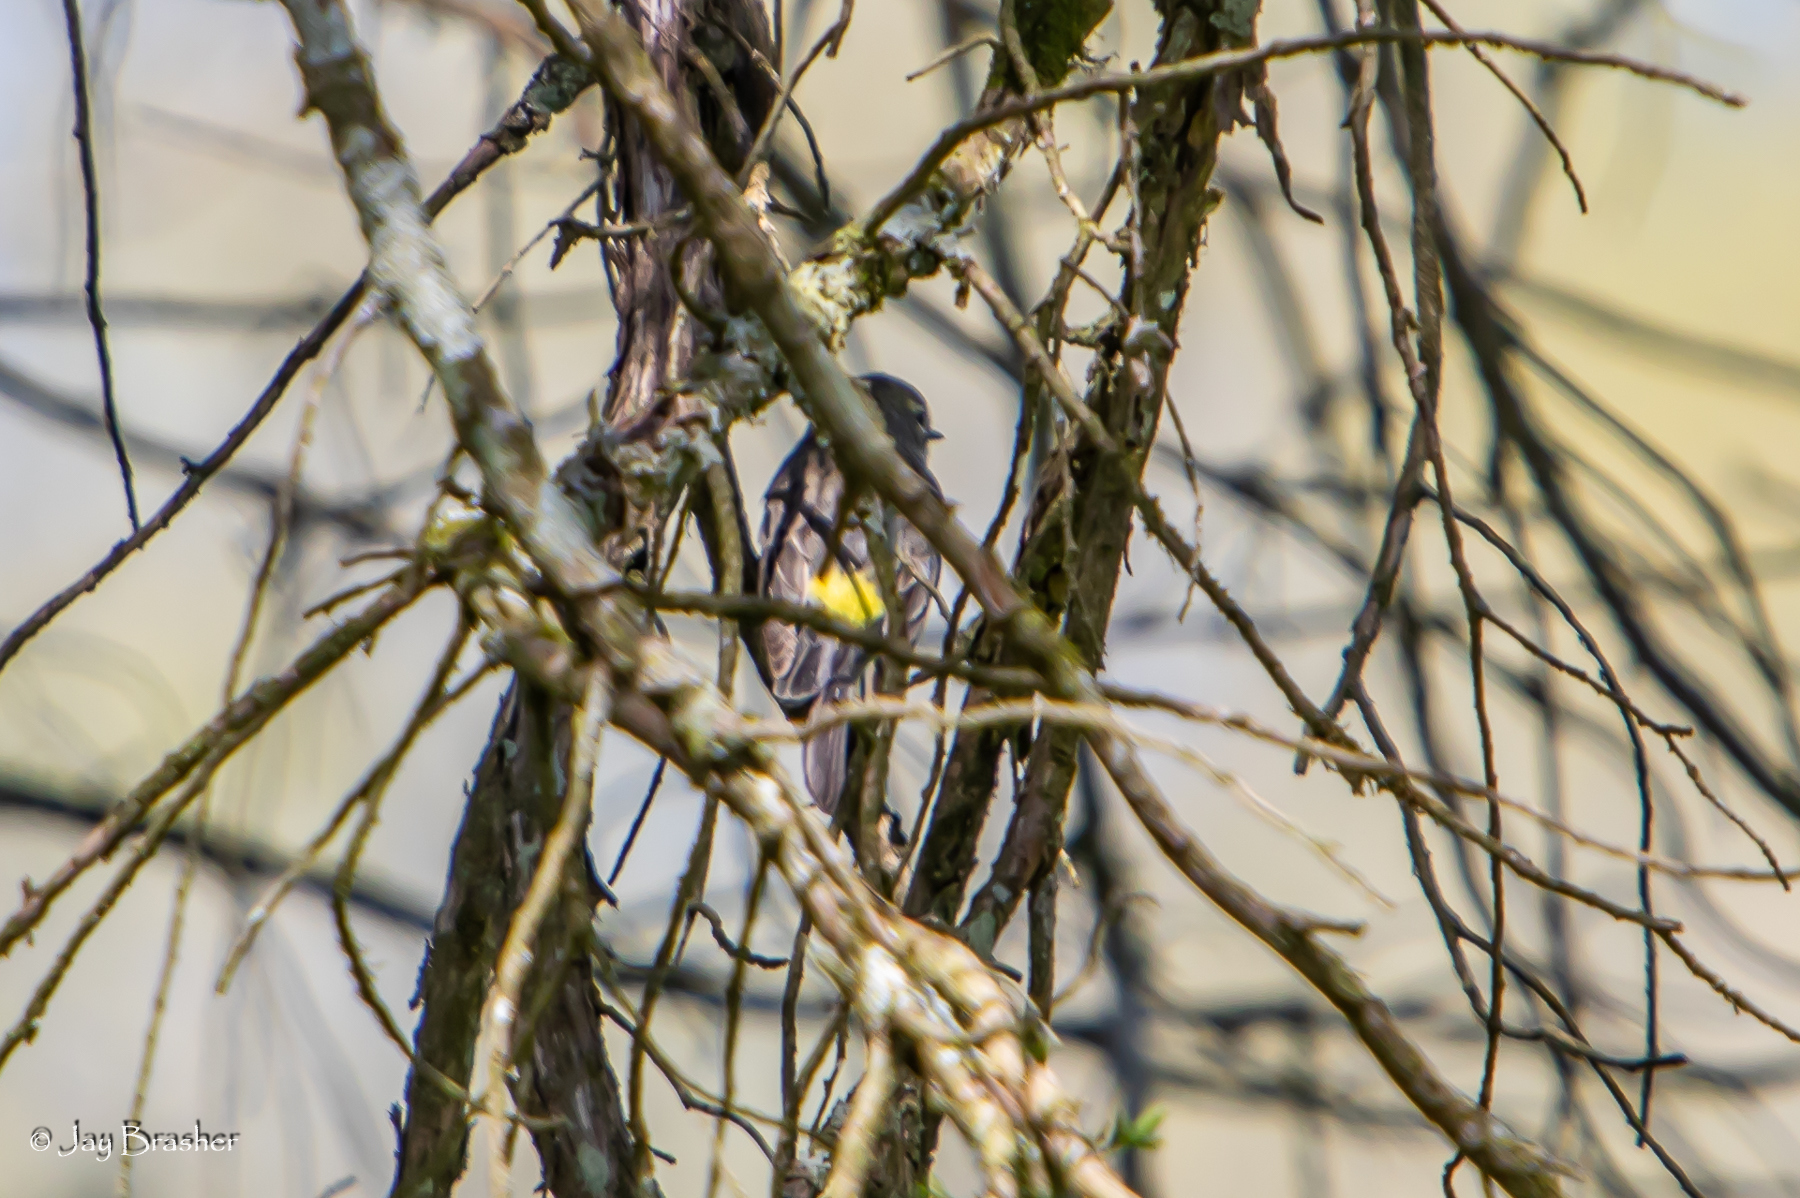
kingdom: Animalia
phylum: Chordata
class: Aves
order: Passeriformes
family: Parulidae
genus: Setophaga
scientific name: Setophaga coronata
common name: Myrtle warbler
